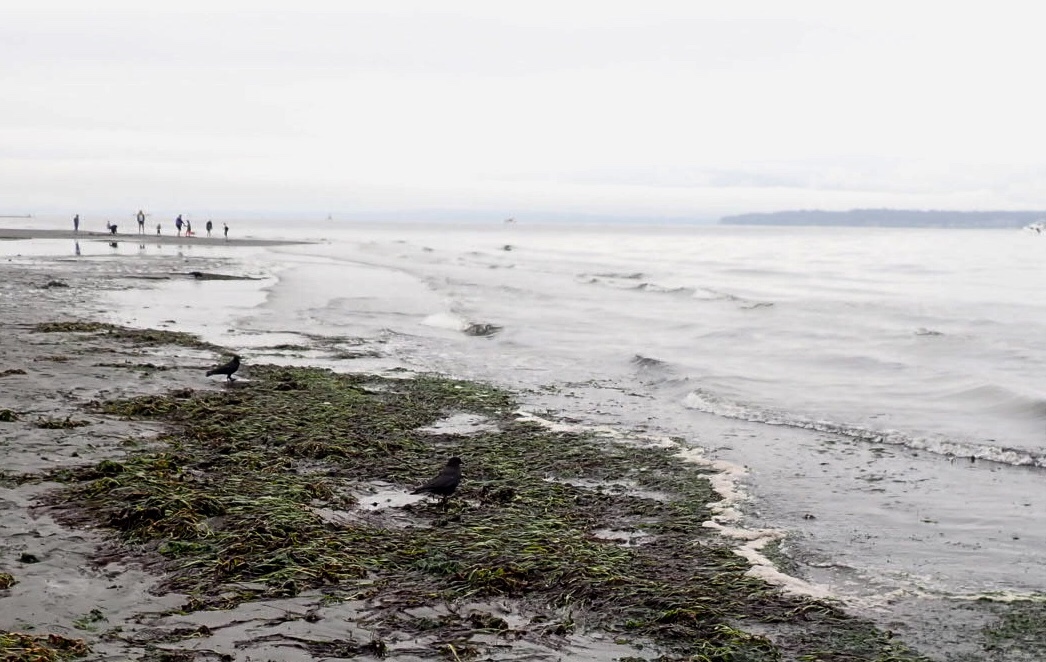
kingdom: Animalia
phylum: Chordata
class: Aves
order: Passeriformes
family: Corvidae
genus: Corvus
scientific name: Corvus brachyrhynchos
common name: American crow
